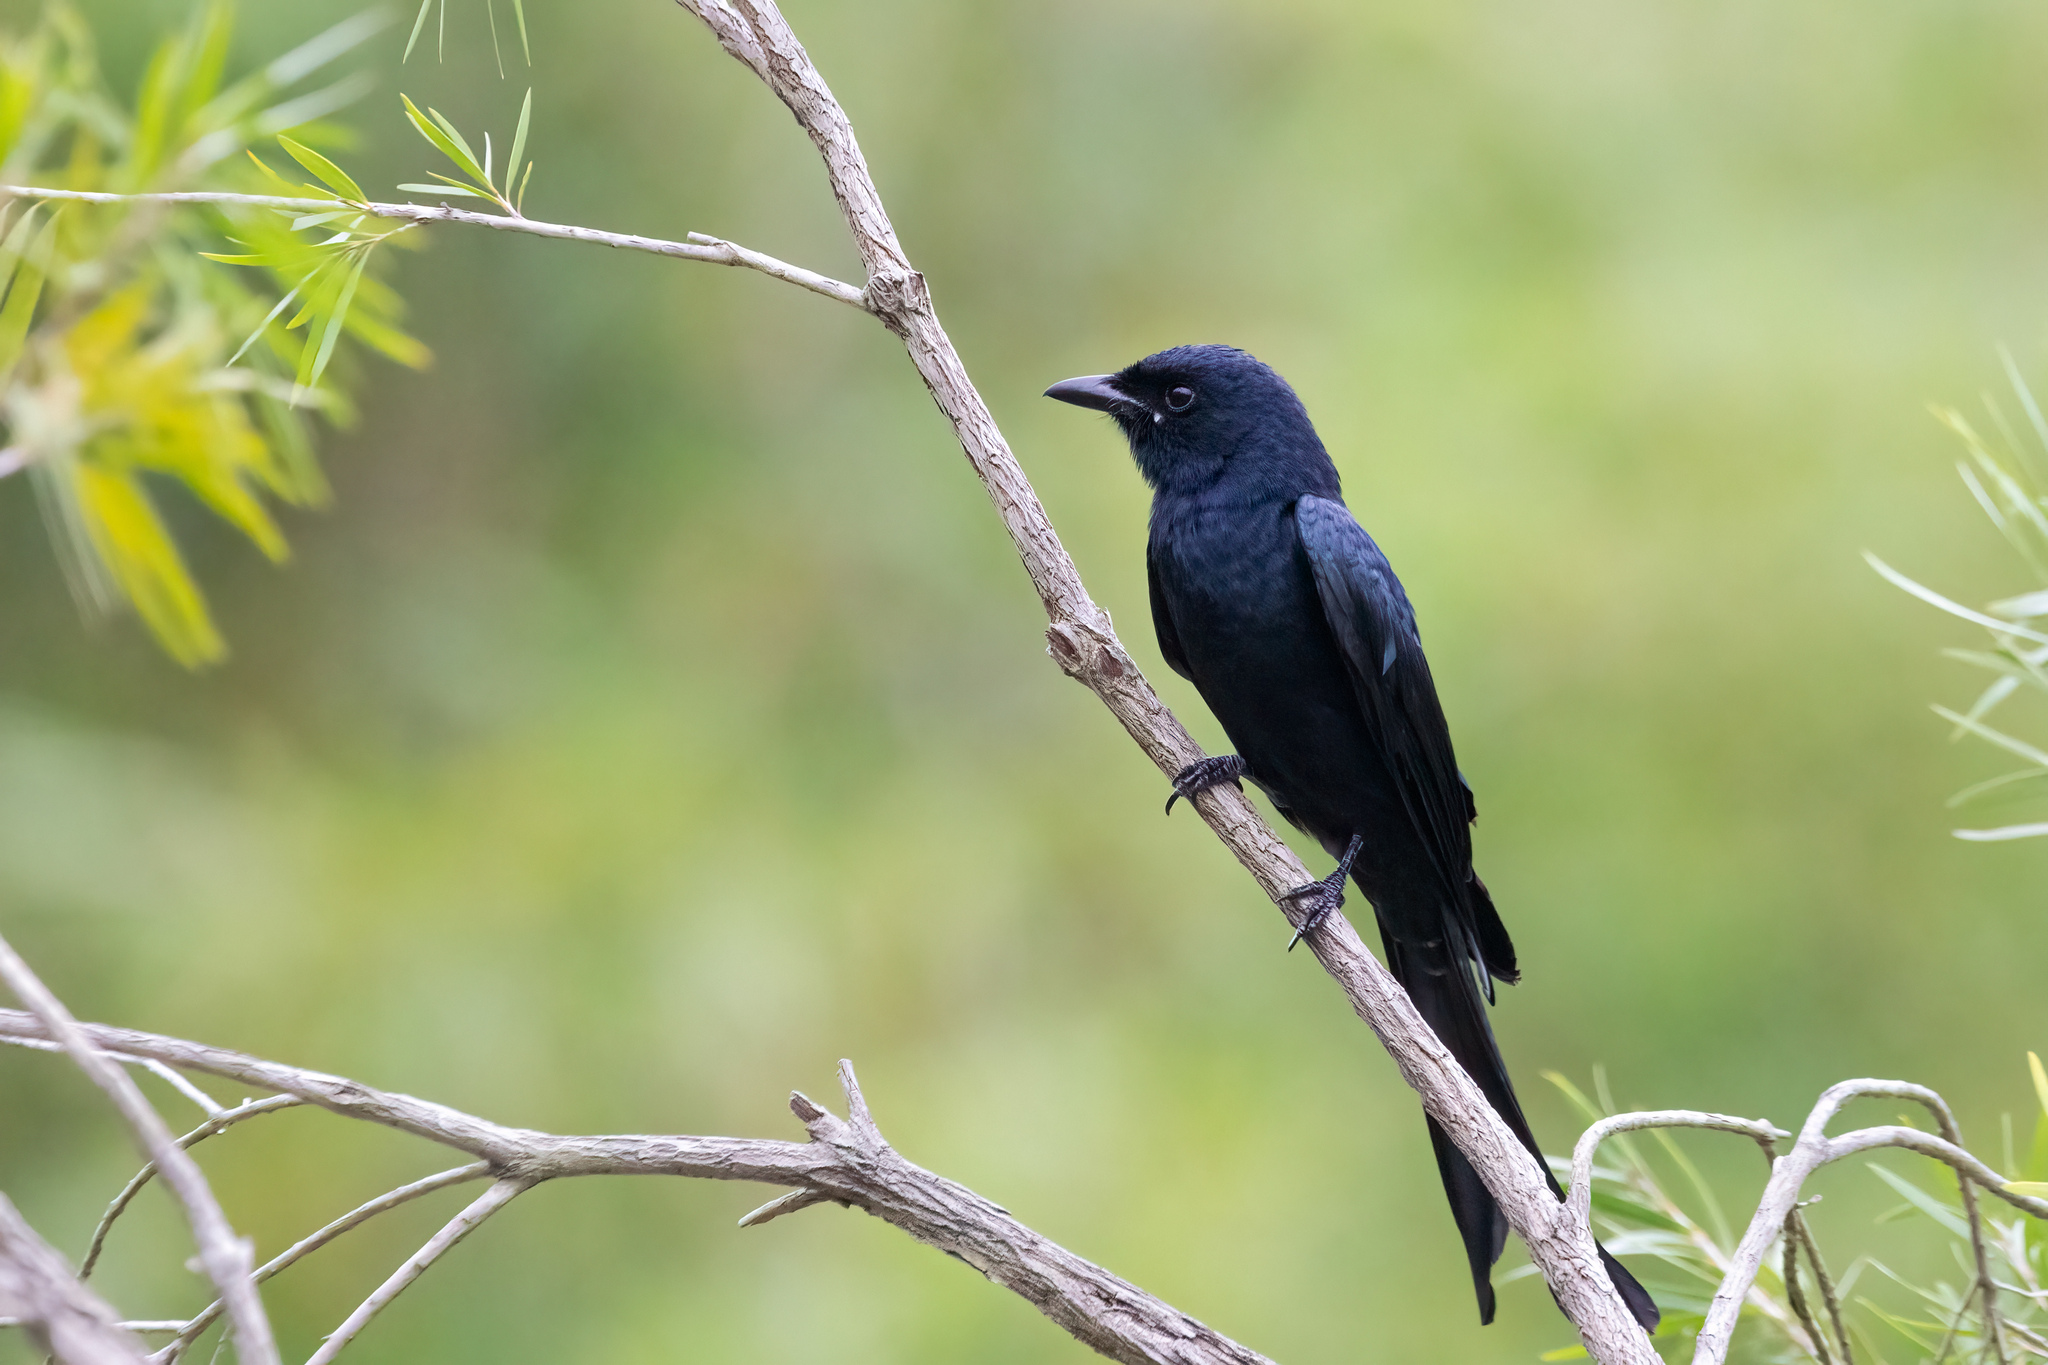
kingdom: Animalia
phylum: Chordata
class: Aves
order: Passeriformes
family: Dicruridae
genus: Dicrurus
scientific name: Dicrurus macrocercus
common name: Black drongo
